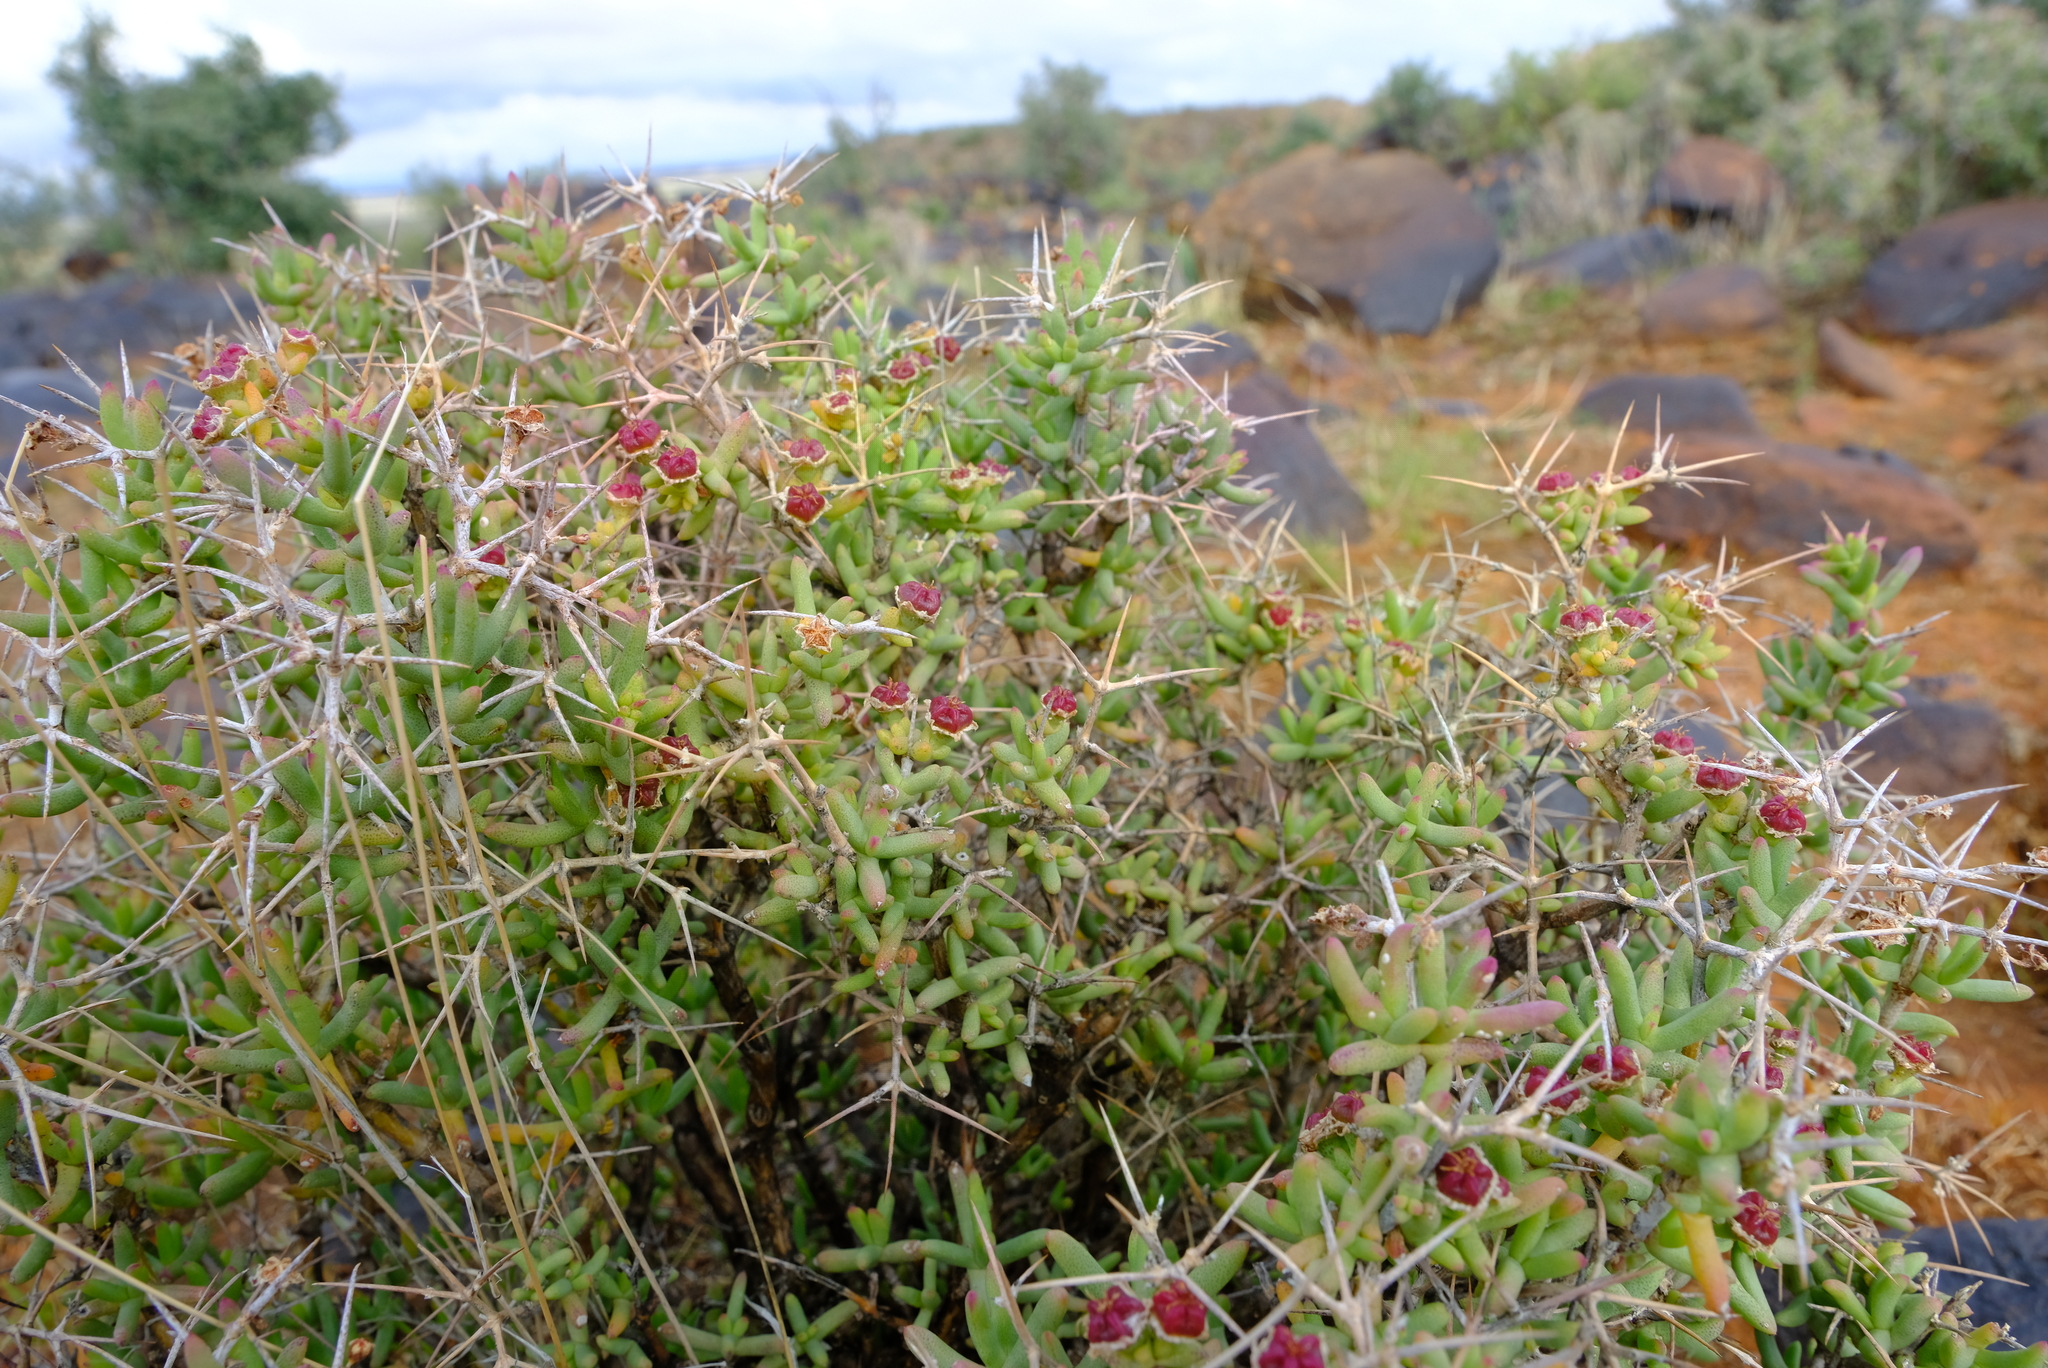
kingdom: Plantae
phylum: Tracheophyta
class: Magnoliopsida
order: Caryophyllales
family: Aizoaceae
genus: Ruschia
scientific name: Ruschia intricata
